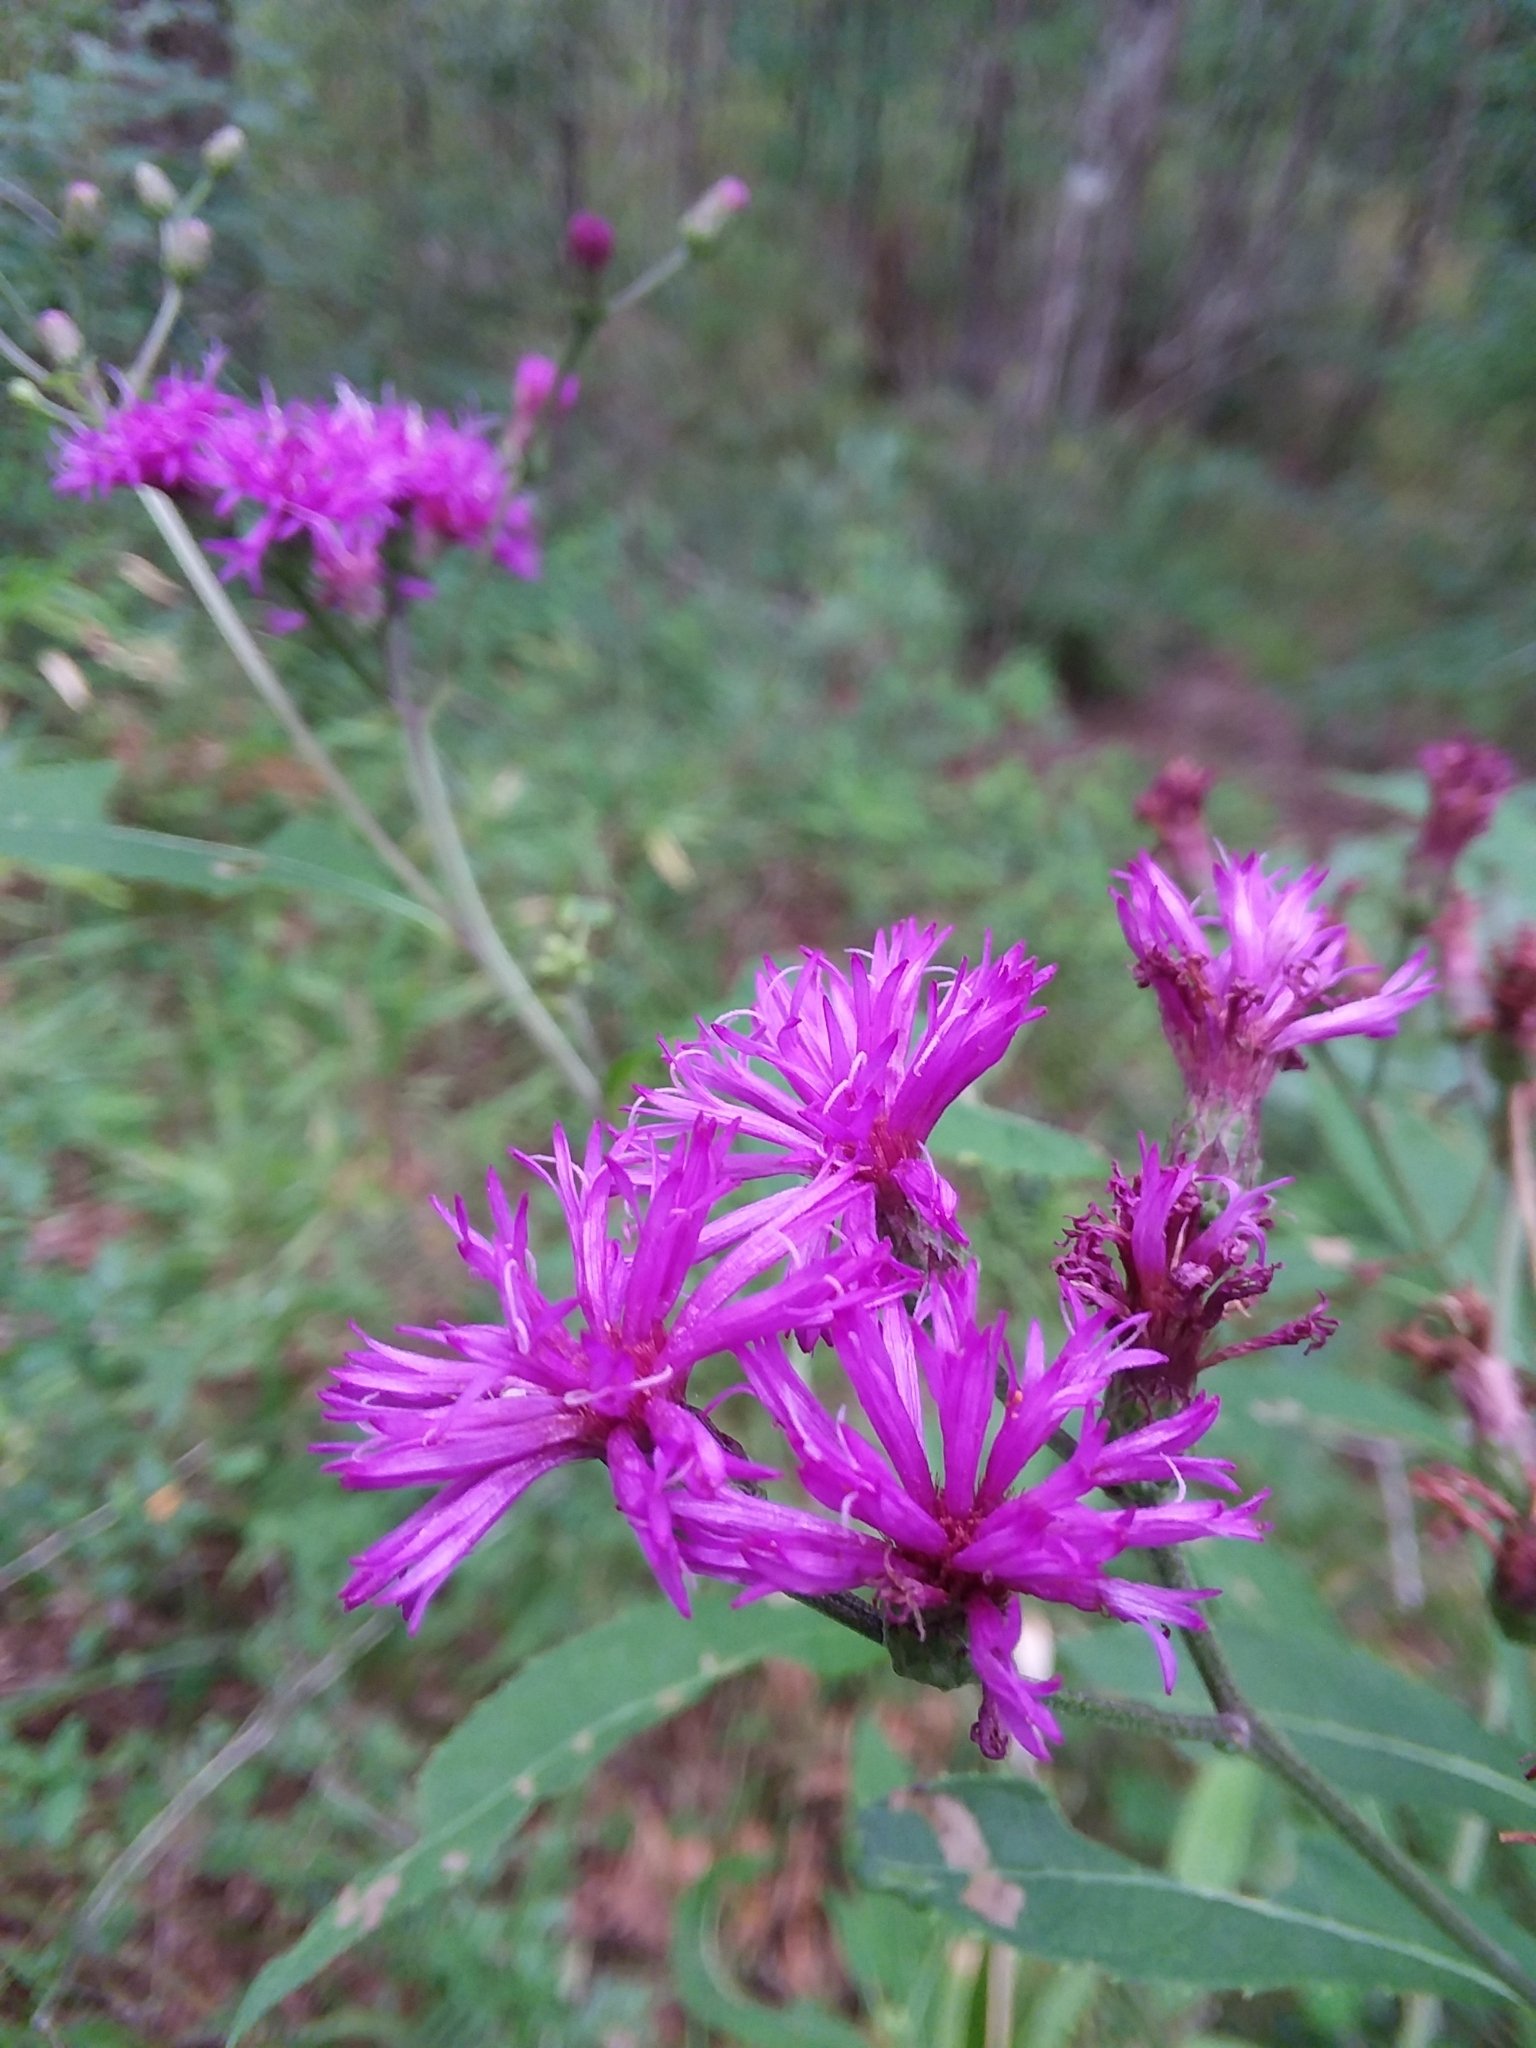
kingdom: Plantae
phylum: Tracheophyta
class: Magnoliopsida
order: Asterales
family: Asteraceae
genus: Vernonia
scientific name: Vernonia gigantea
